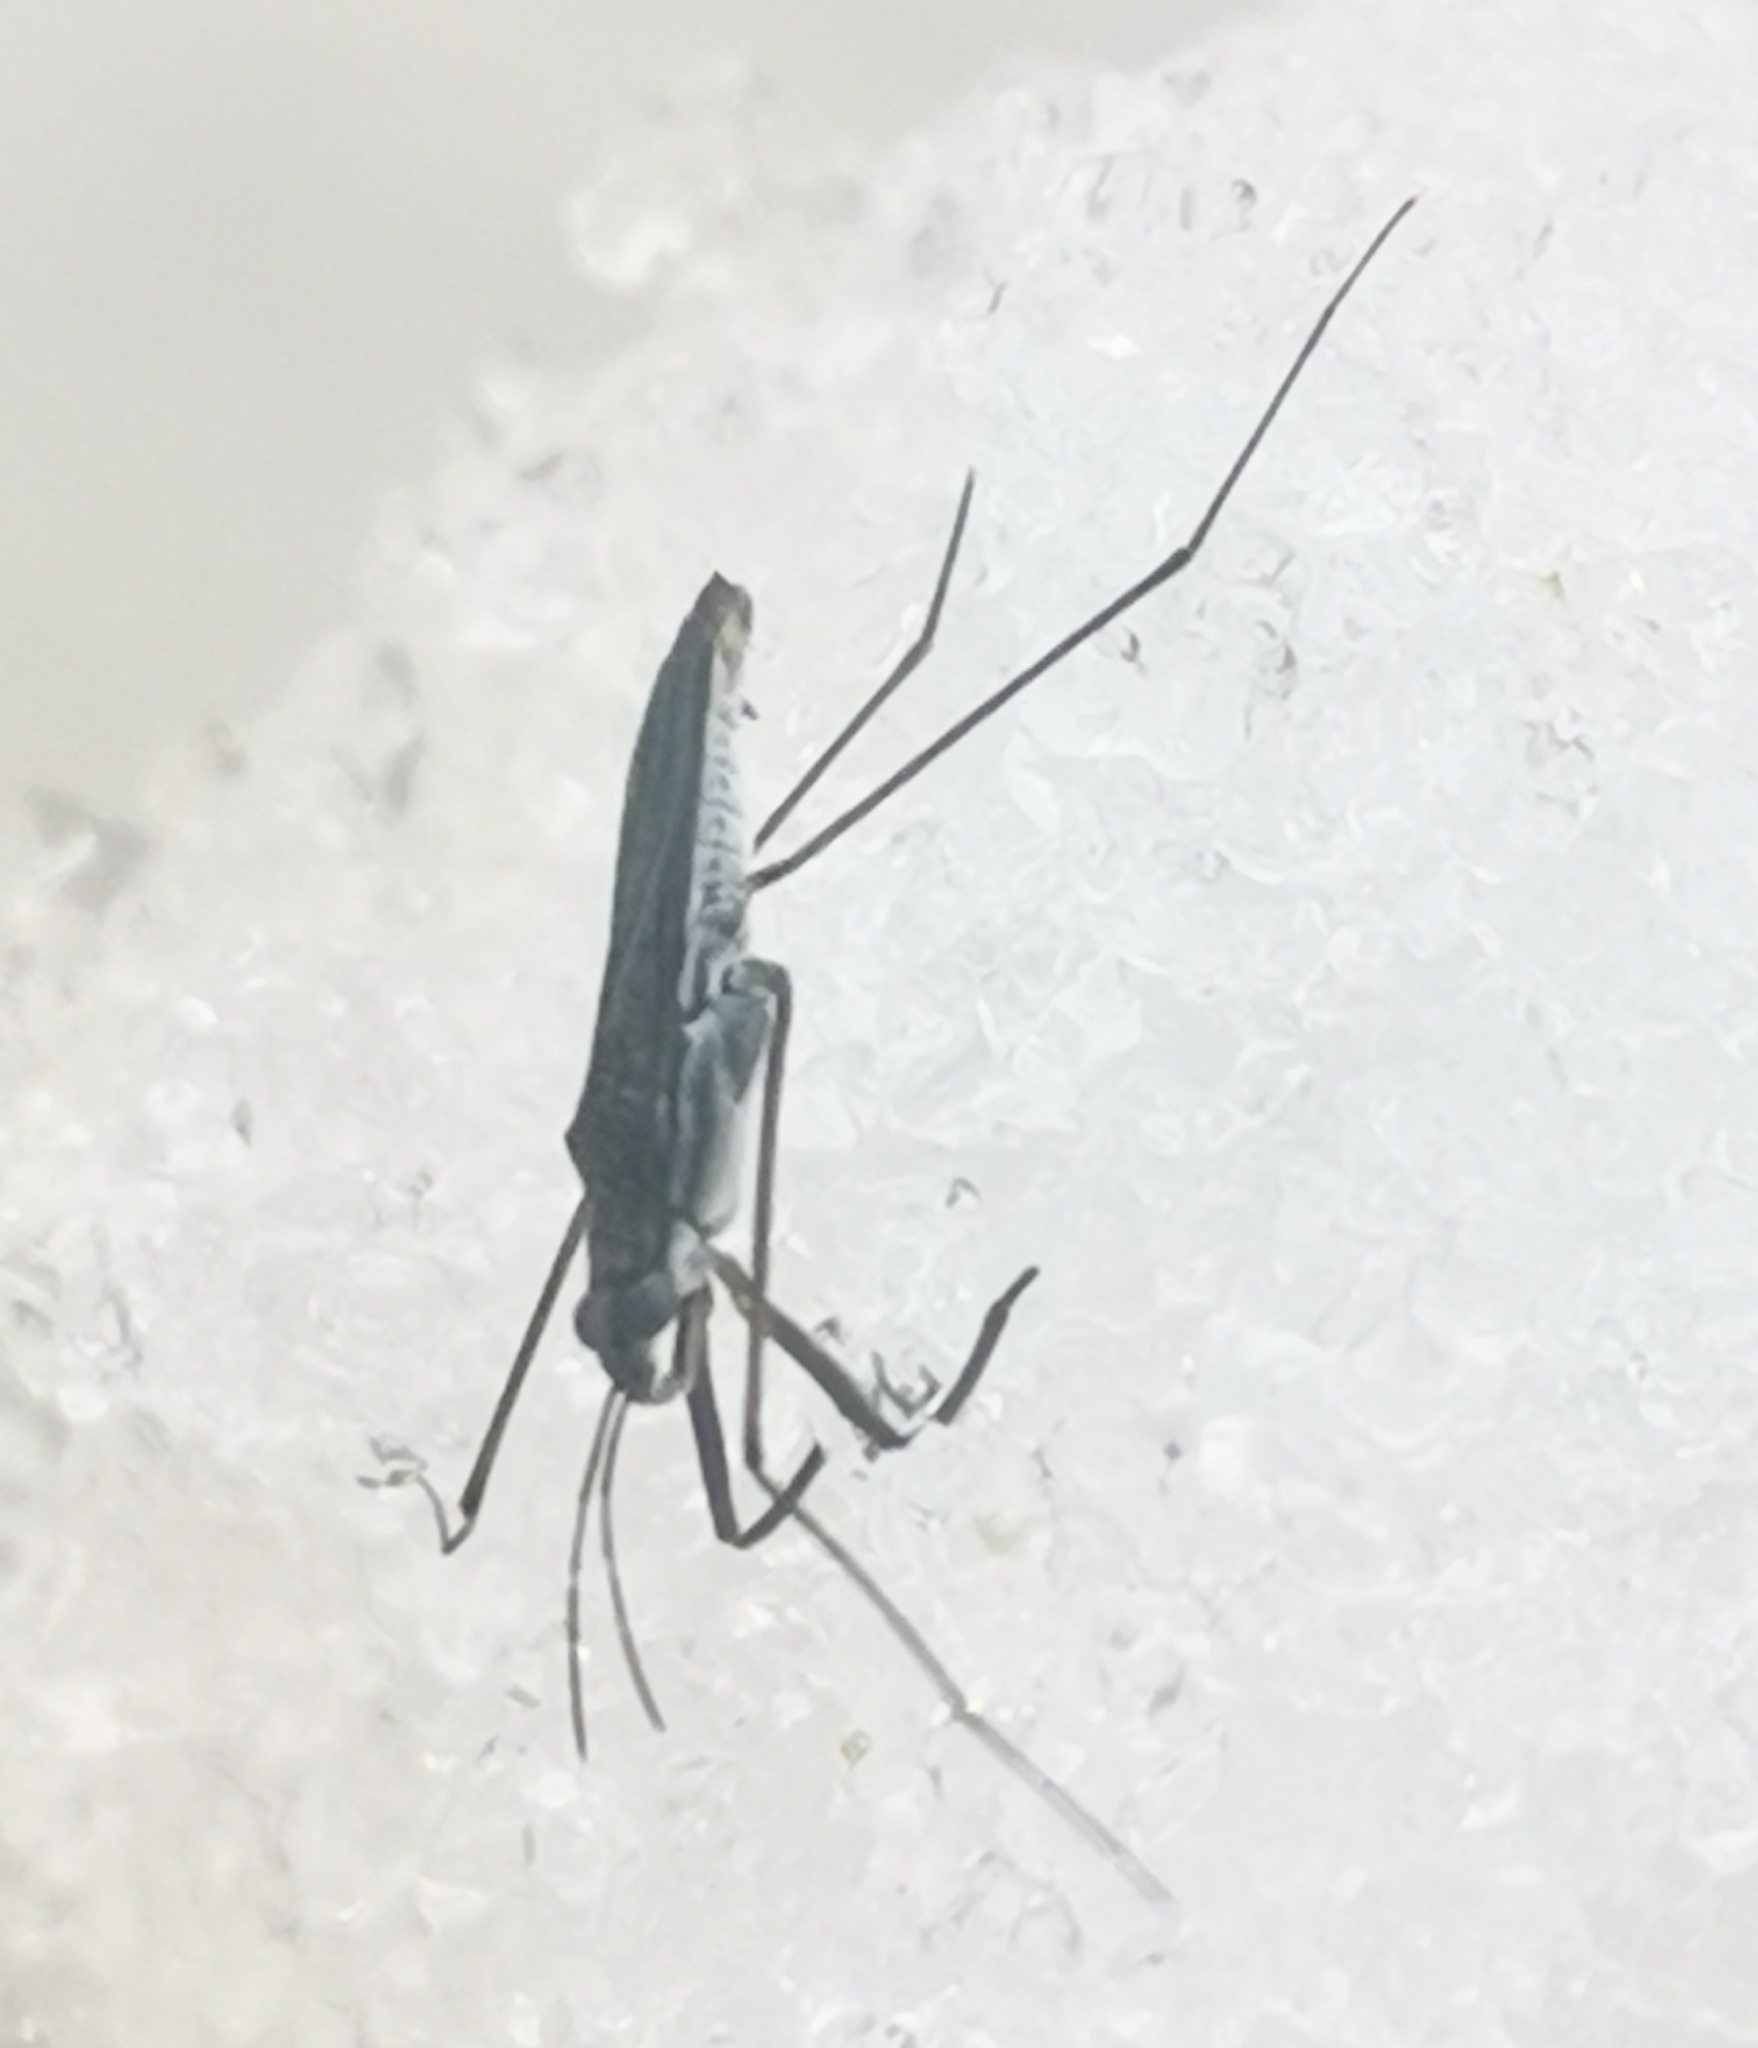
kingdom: Animalia
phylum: Arthropoda
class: Insecta
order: Hemiptera
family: Gerridae
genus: Gerris
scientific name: Gerris odontogaster
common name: Toothed pondskater
